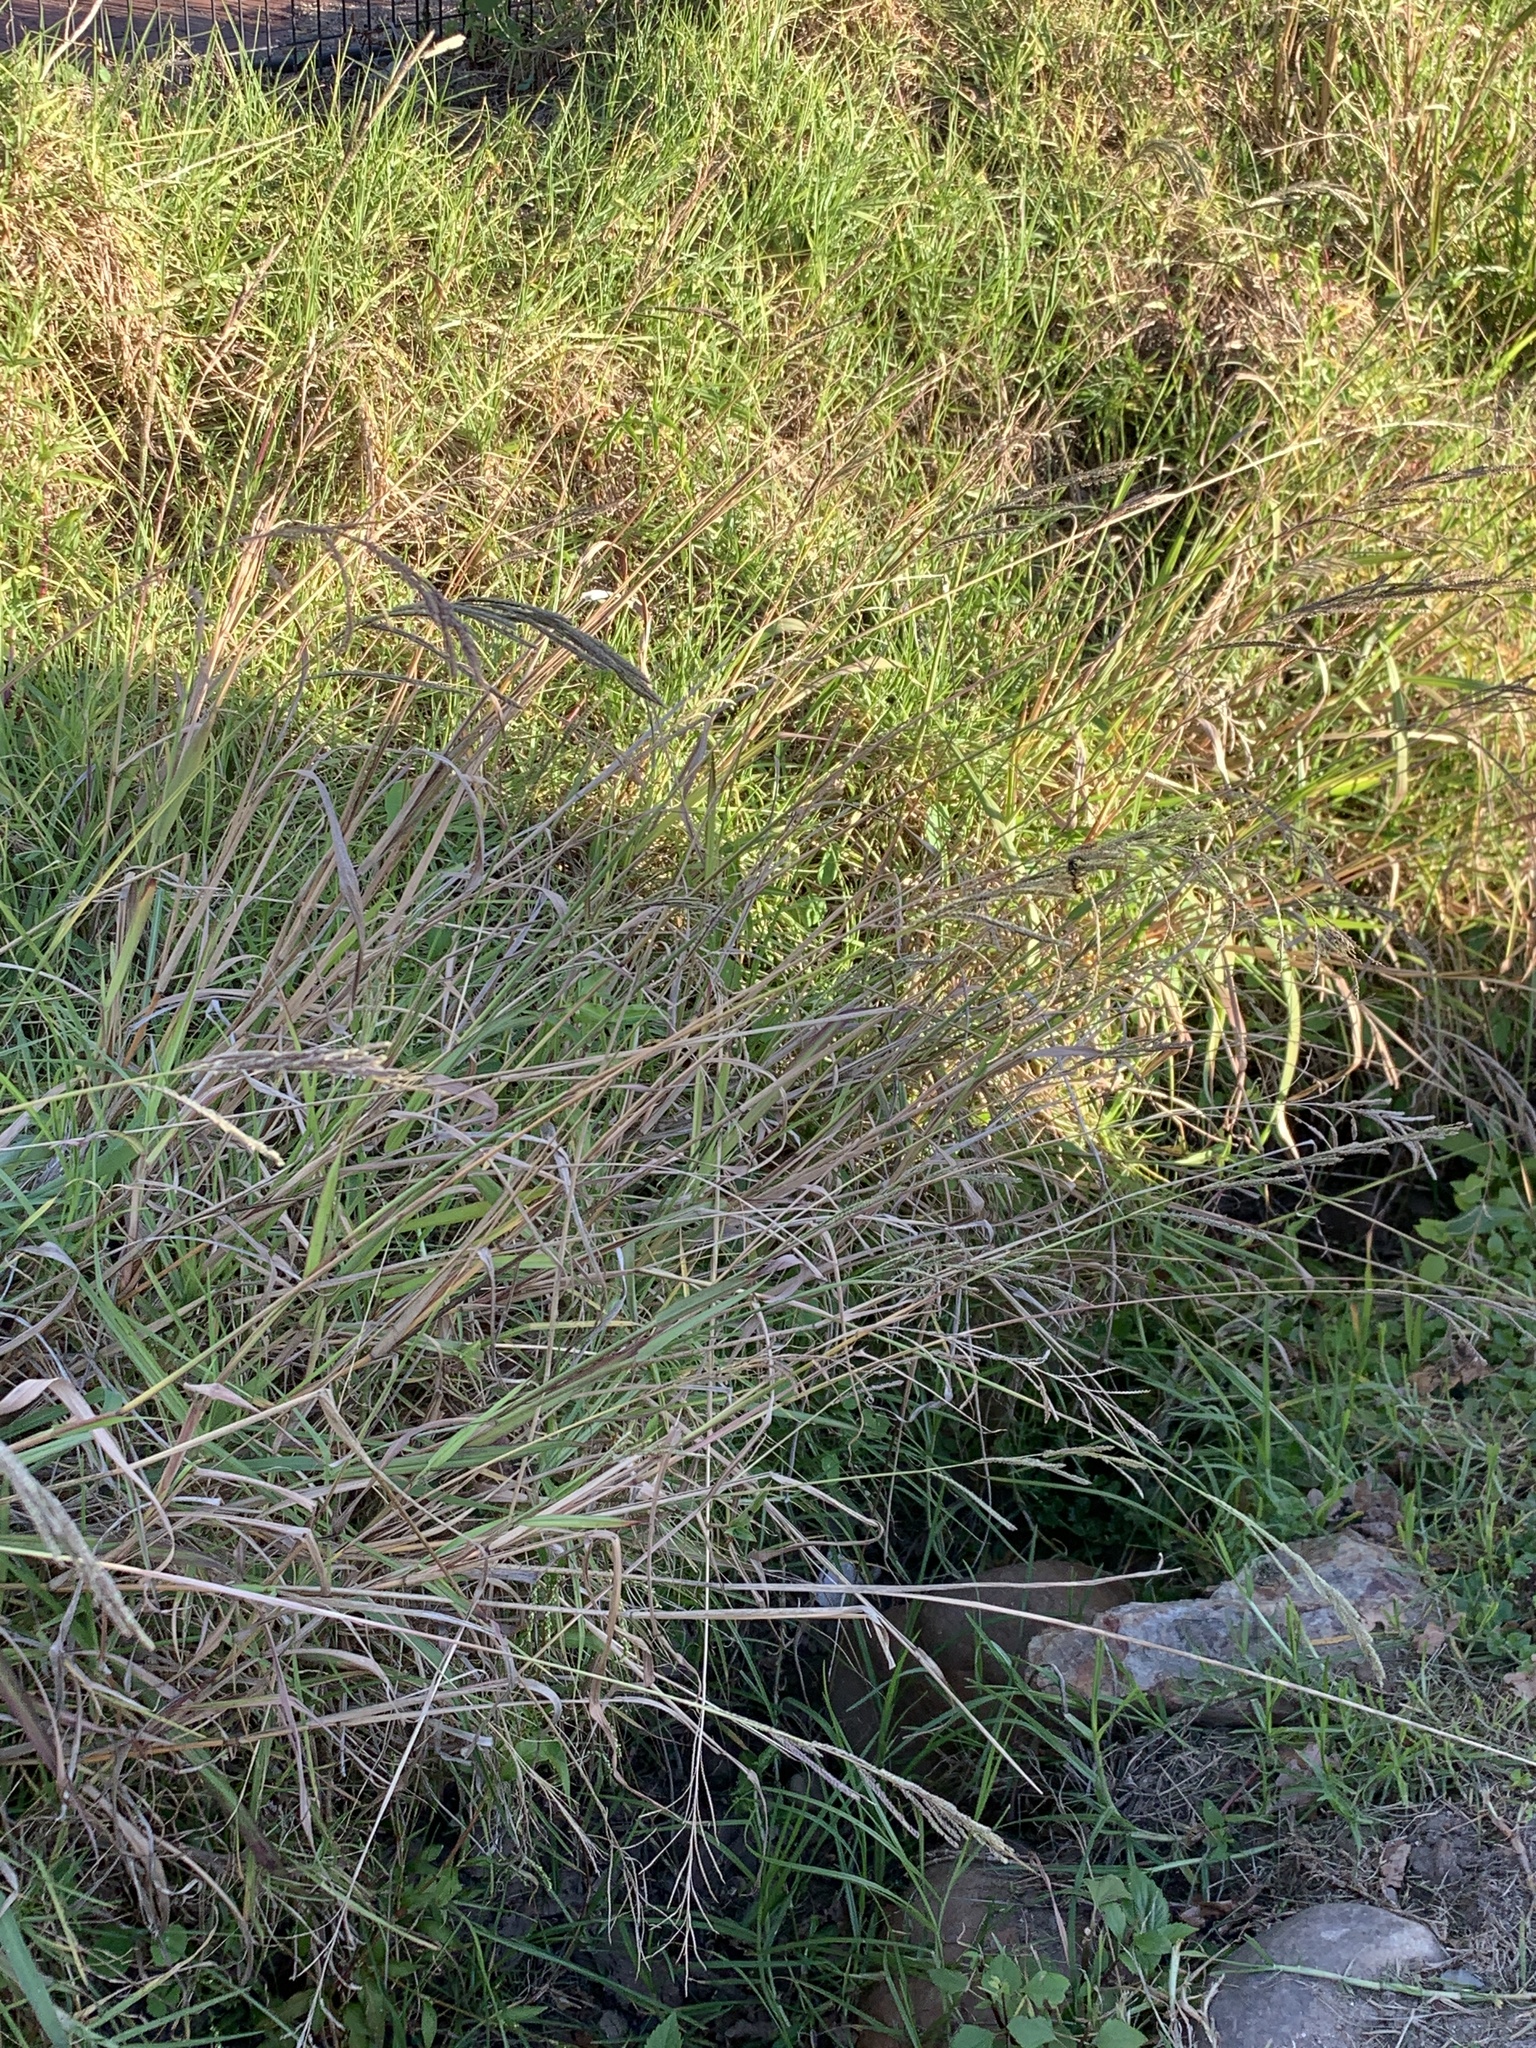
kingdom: Plantae
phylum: Tracheophyta
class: Liliopsida
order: Poales
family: Poaceae
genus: Paspalum
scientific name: Paspalum urvillei
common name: Vasey's grass
